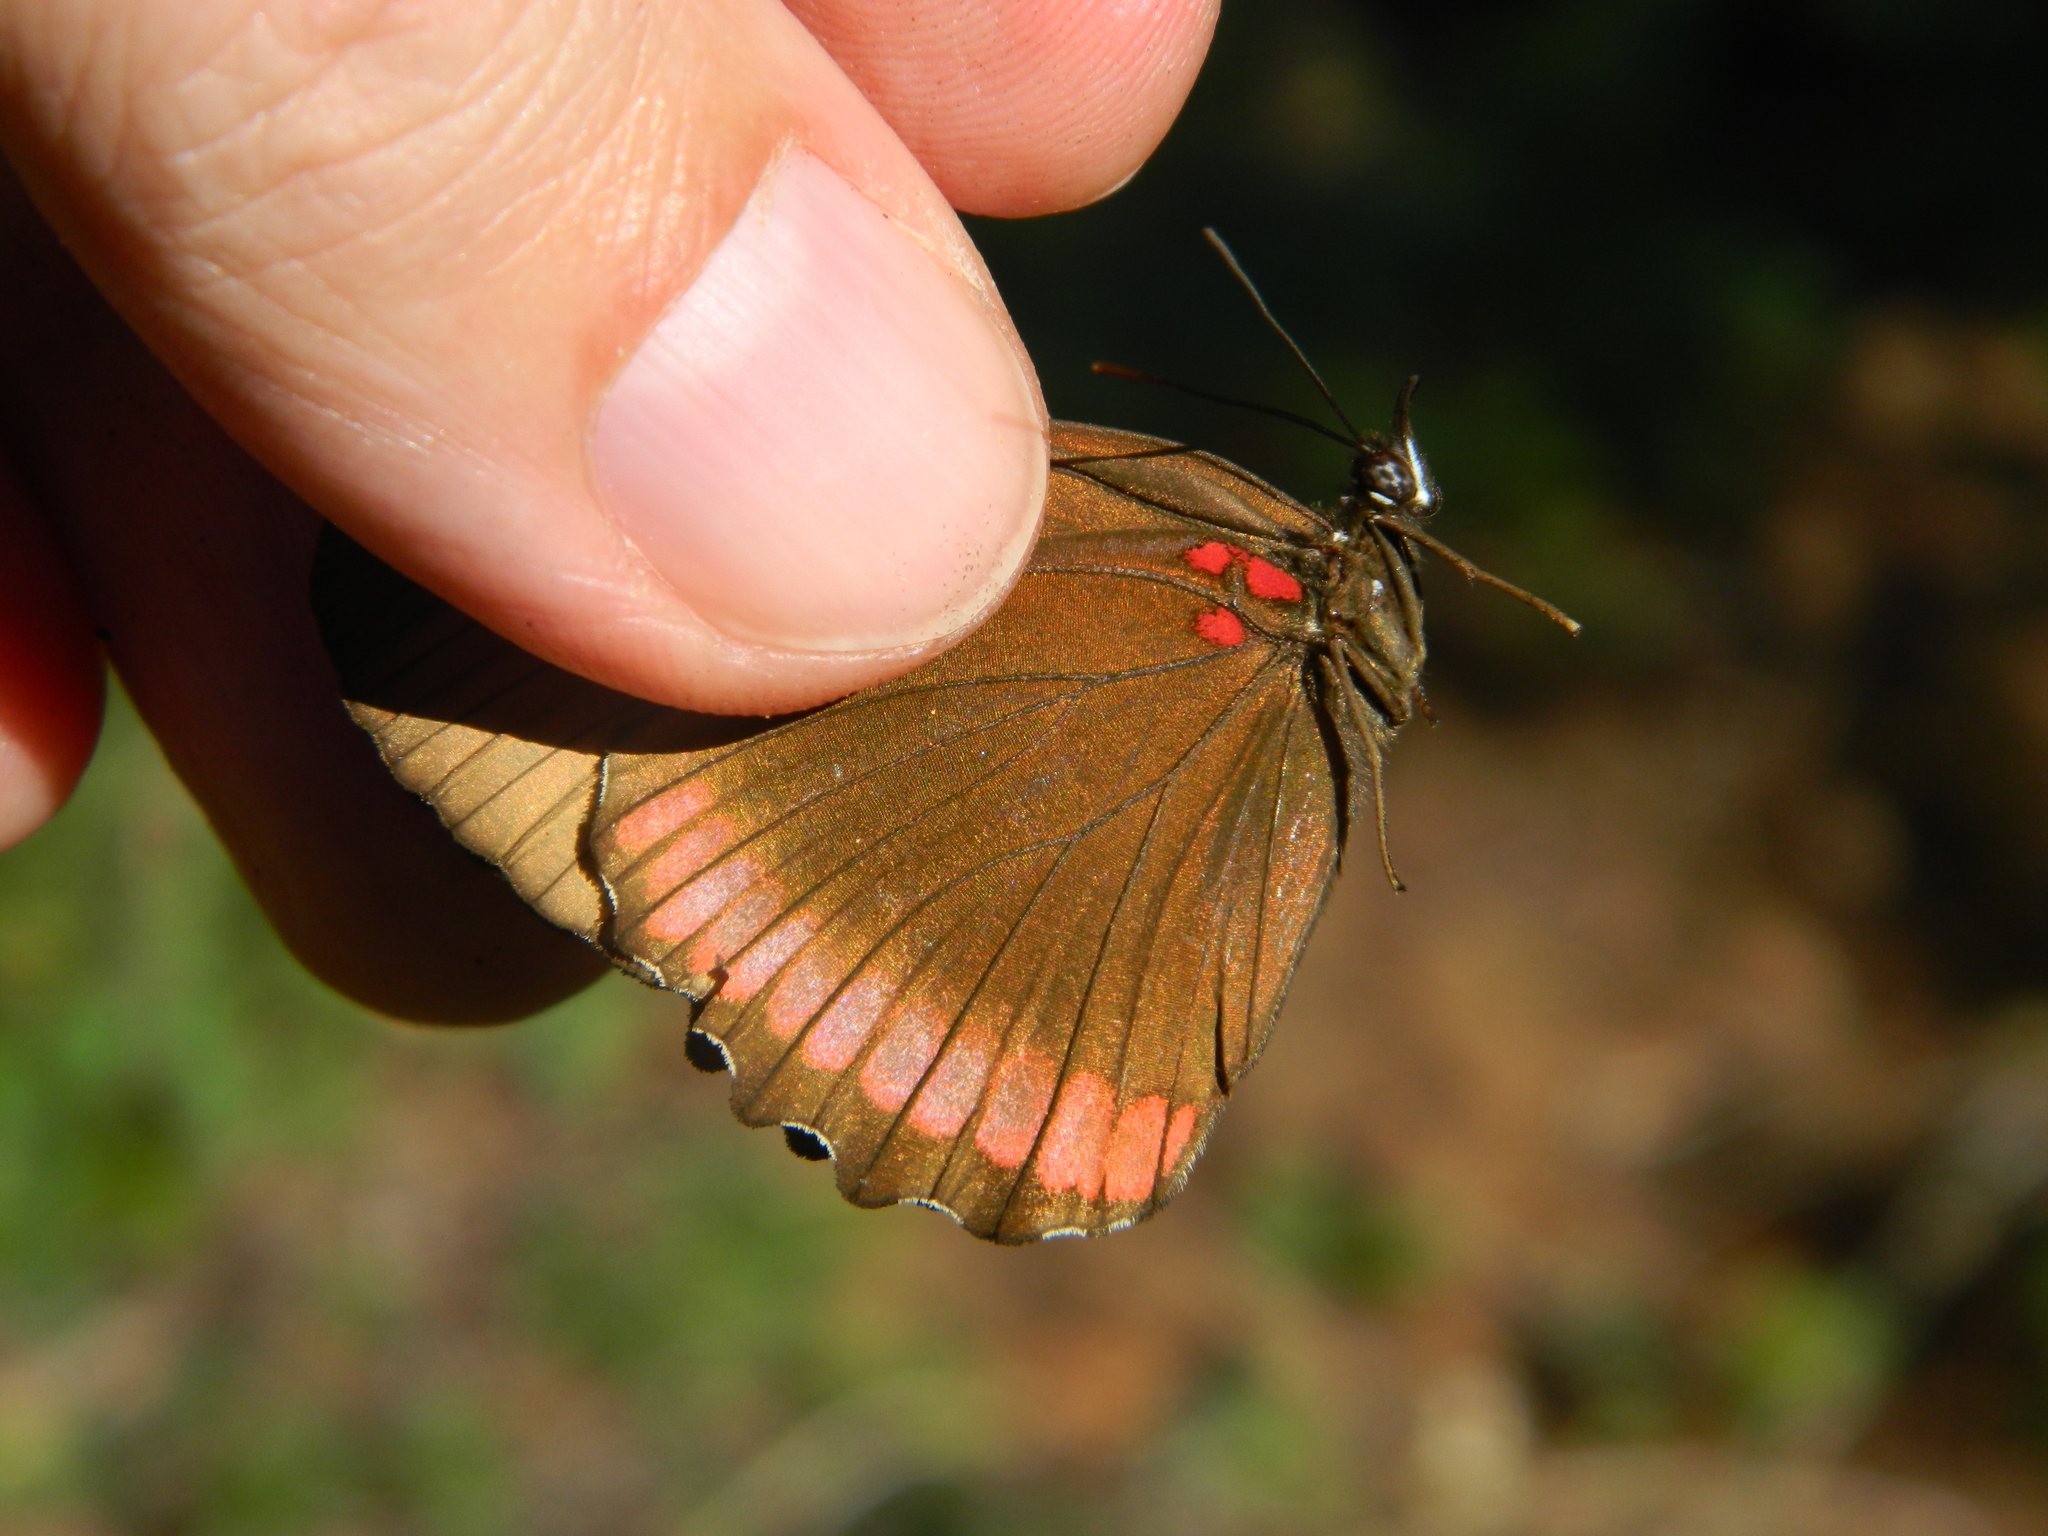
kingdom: Animalia
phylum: Arthropoda
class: Insecta
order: Lepidoptera
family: Sesiidae
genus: Sesia
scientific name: Sesia Biblis hyperia
